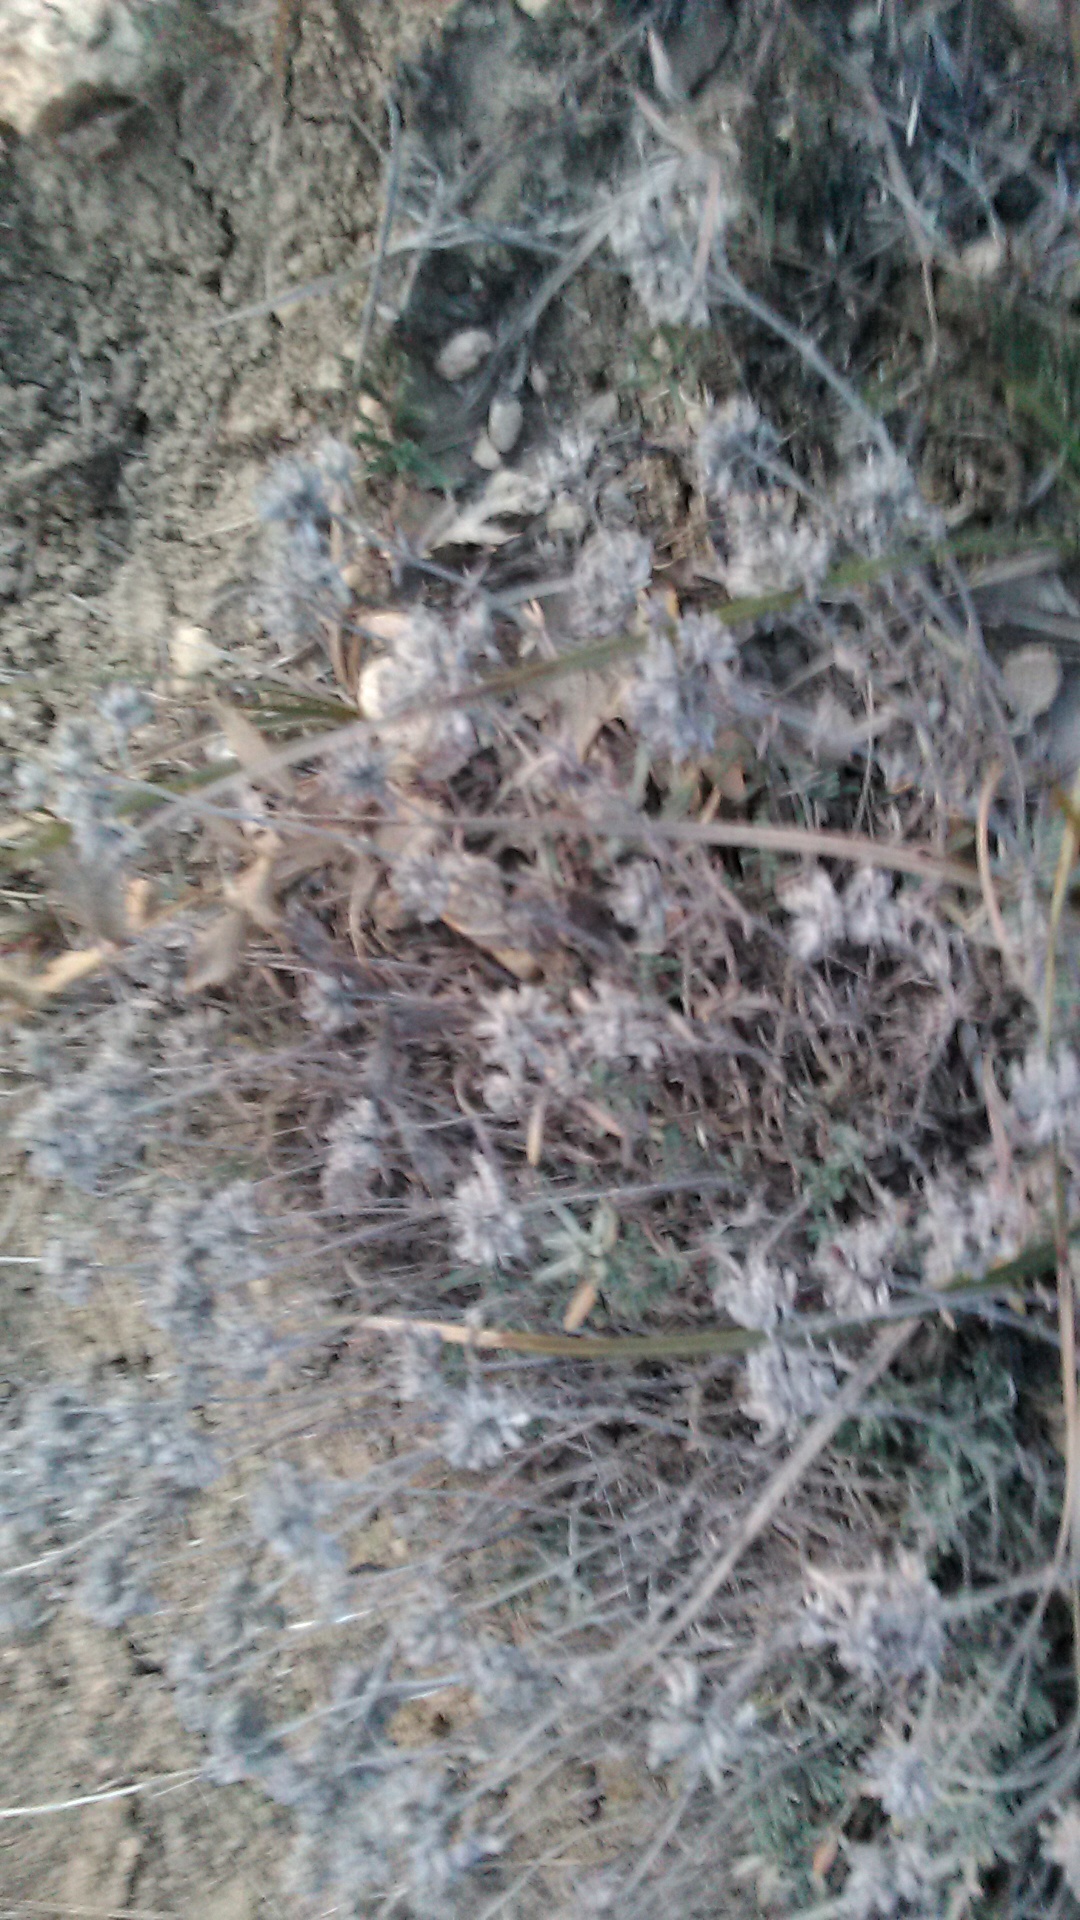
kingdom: Plantae
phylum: Tracheophyta
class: Magnoliopsida
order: Lamiales
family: Lamiaceae
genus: Teucrium
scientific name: Teucrium polium
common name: Poley
